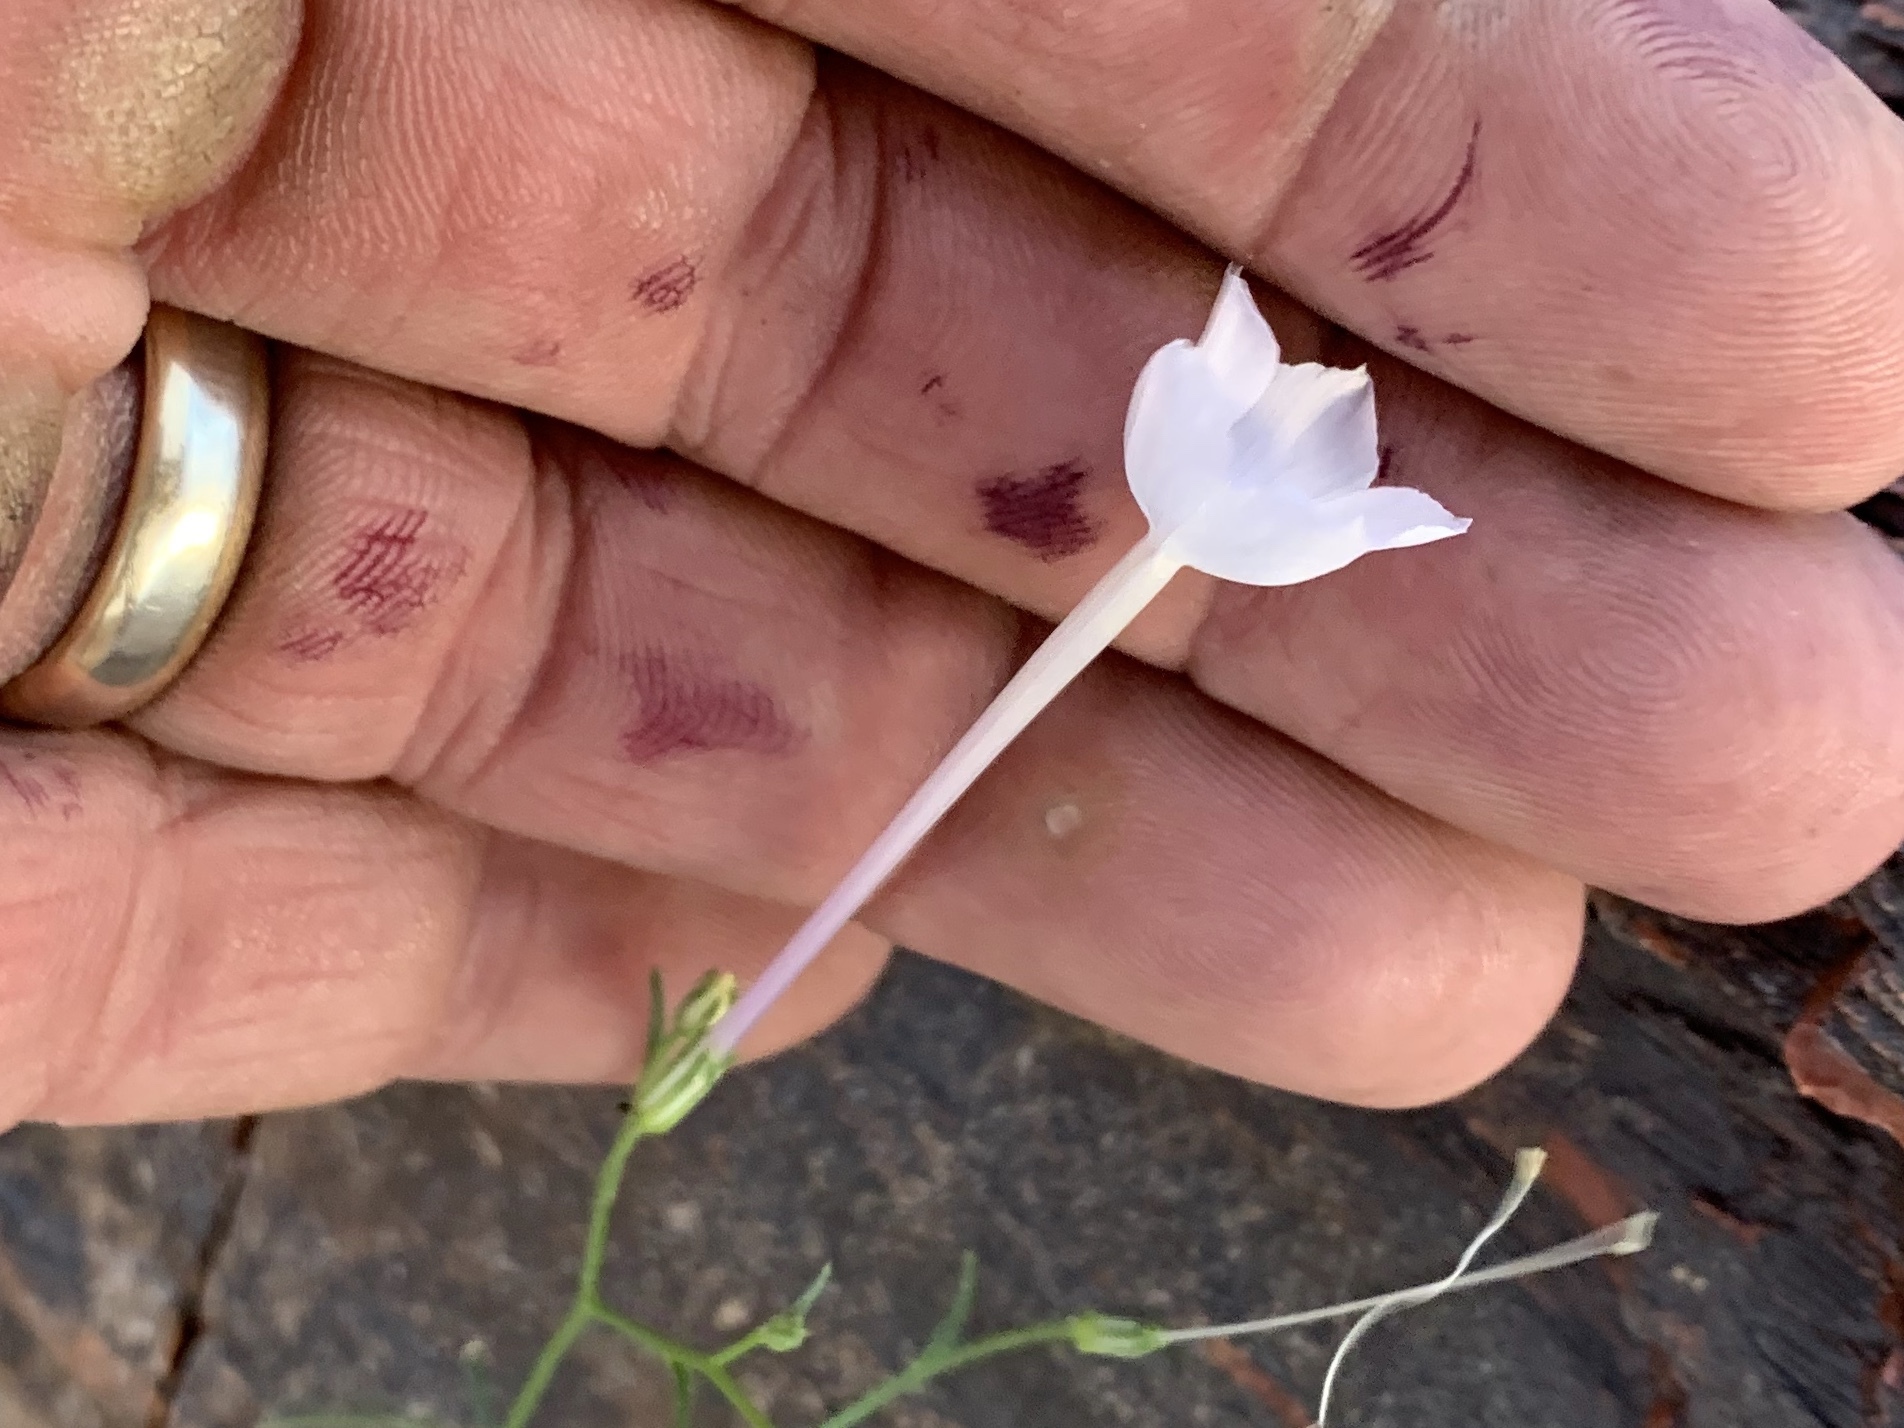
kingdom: Plantae
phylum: Tracheophyta
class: Magnoliopsida
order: Ericales
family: Polemoniaceae
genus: Ipomopsis
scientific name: Ipomopsis longiflora
